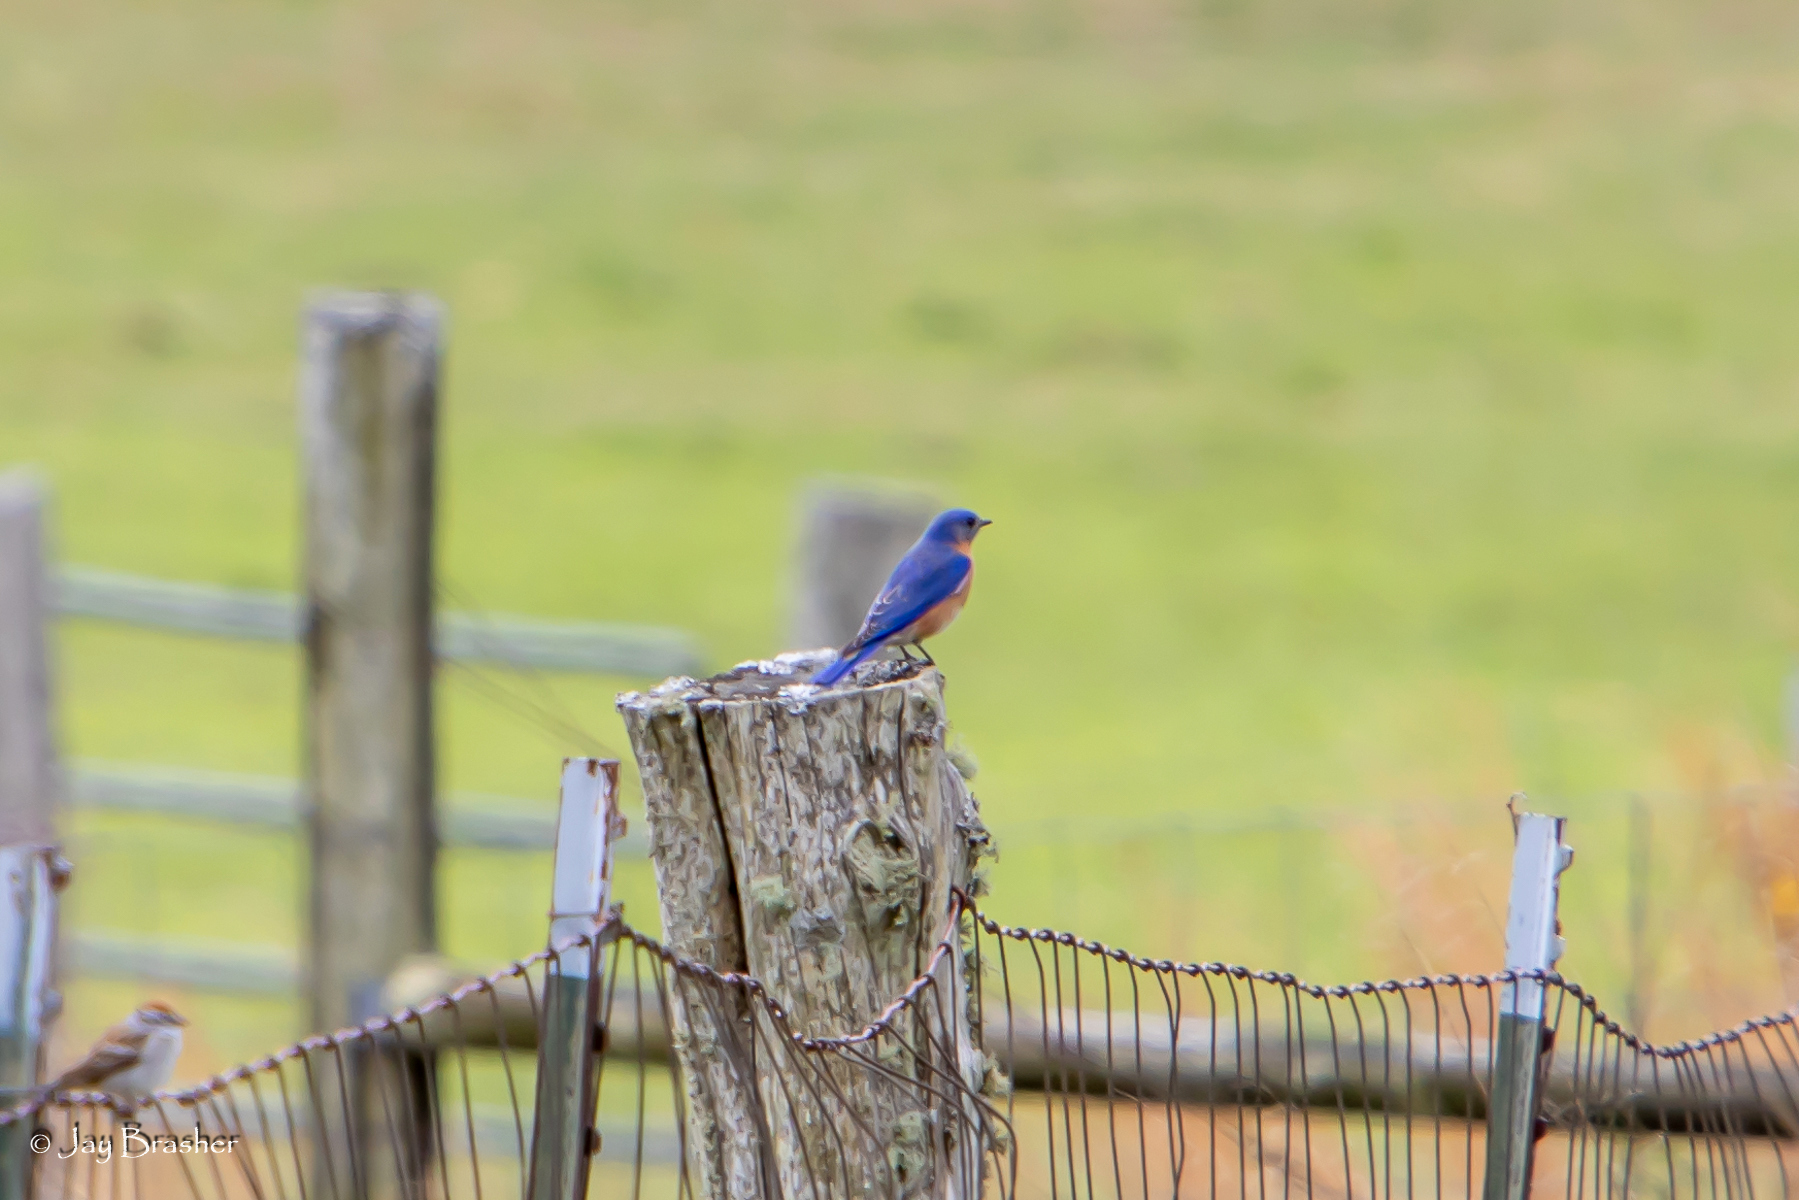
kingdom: Animalia
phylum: Chordata
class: Aves
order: Passeriformes
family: Turdidae
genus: Sialia
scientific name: Sialia sialis
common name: Eastern bluebird
